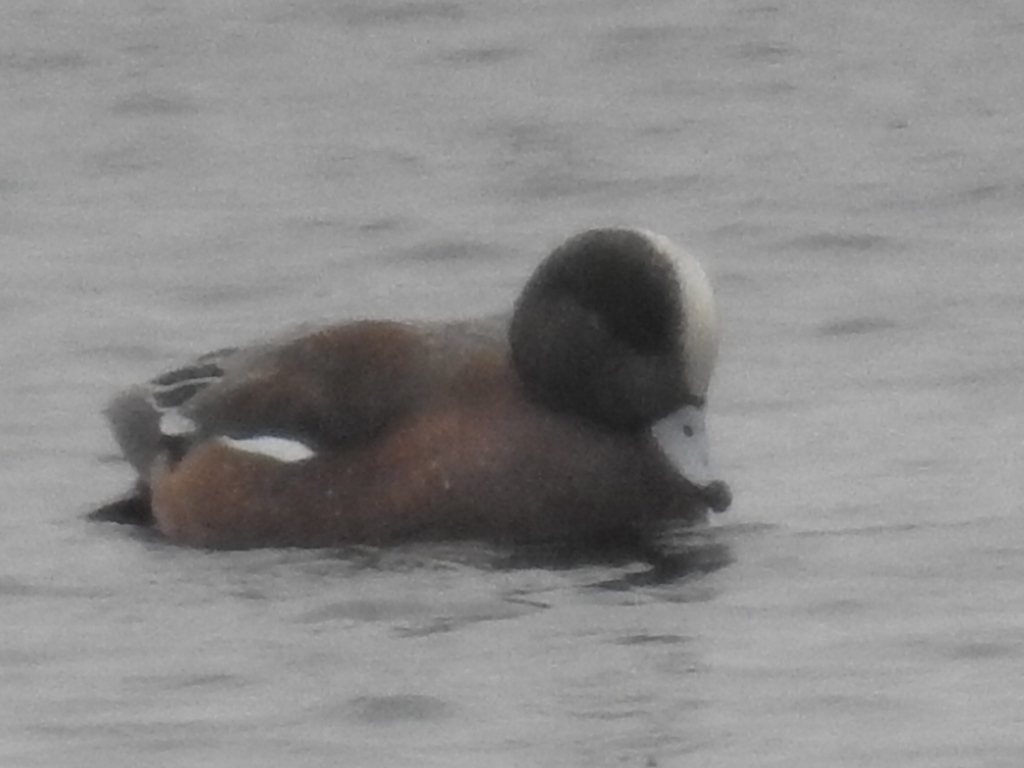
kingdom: Animalia
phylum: Chordata
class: Aves
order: Anseriformes
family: Anatidae
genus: Mareca
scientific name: Mareca americana
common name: American wigeon
